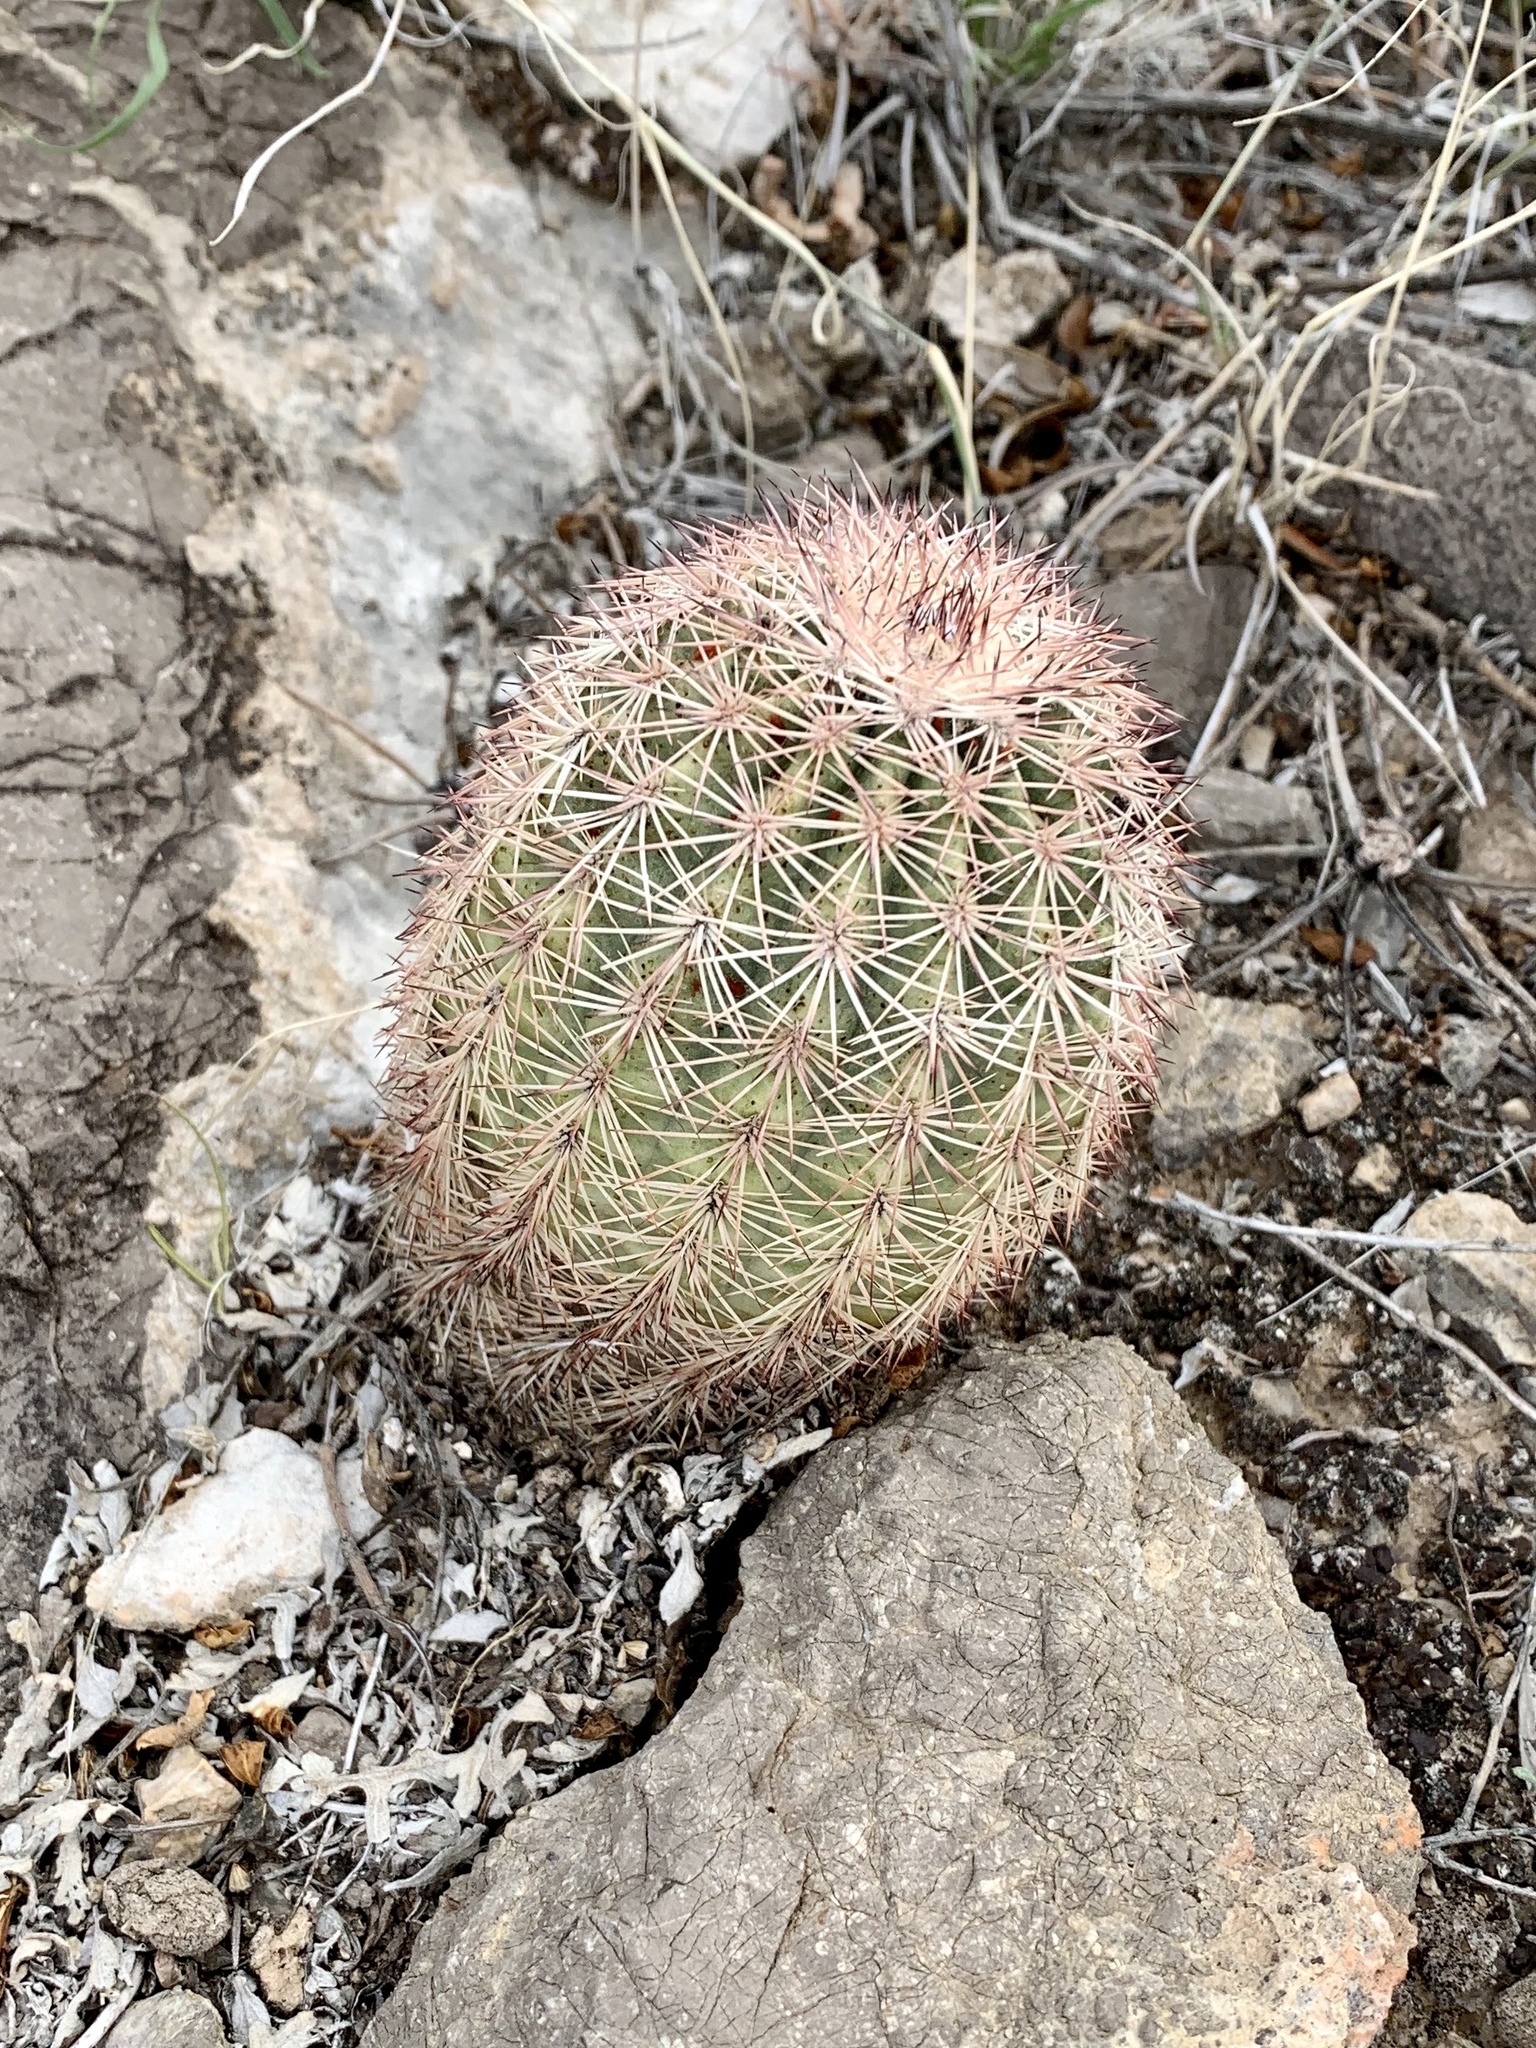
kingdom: Plantae
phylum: Tracheophyta
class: Magnoliopsida
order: Caryophyllales
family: Cactaceae
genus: Echinocereus
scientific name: Echinocereus dasyacanthus
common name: Spiny hedgehog cactus
